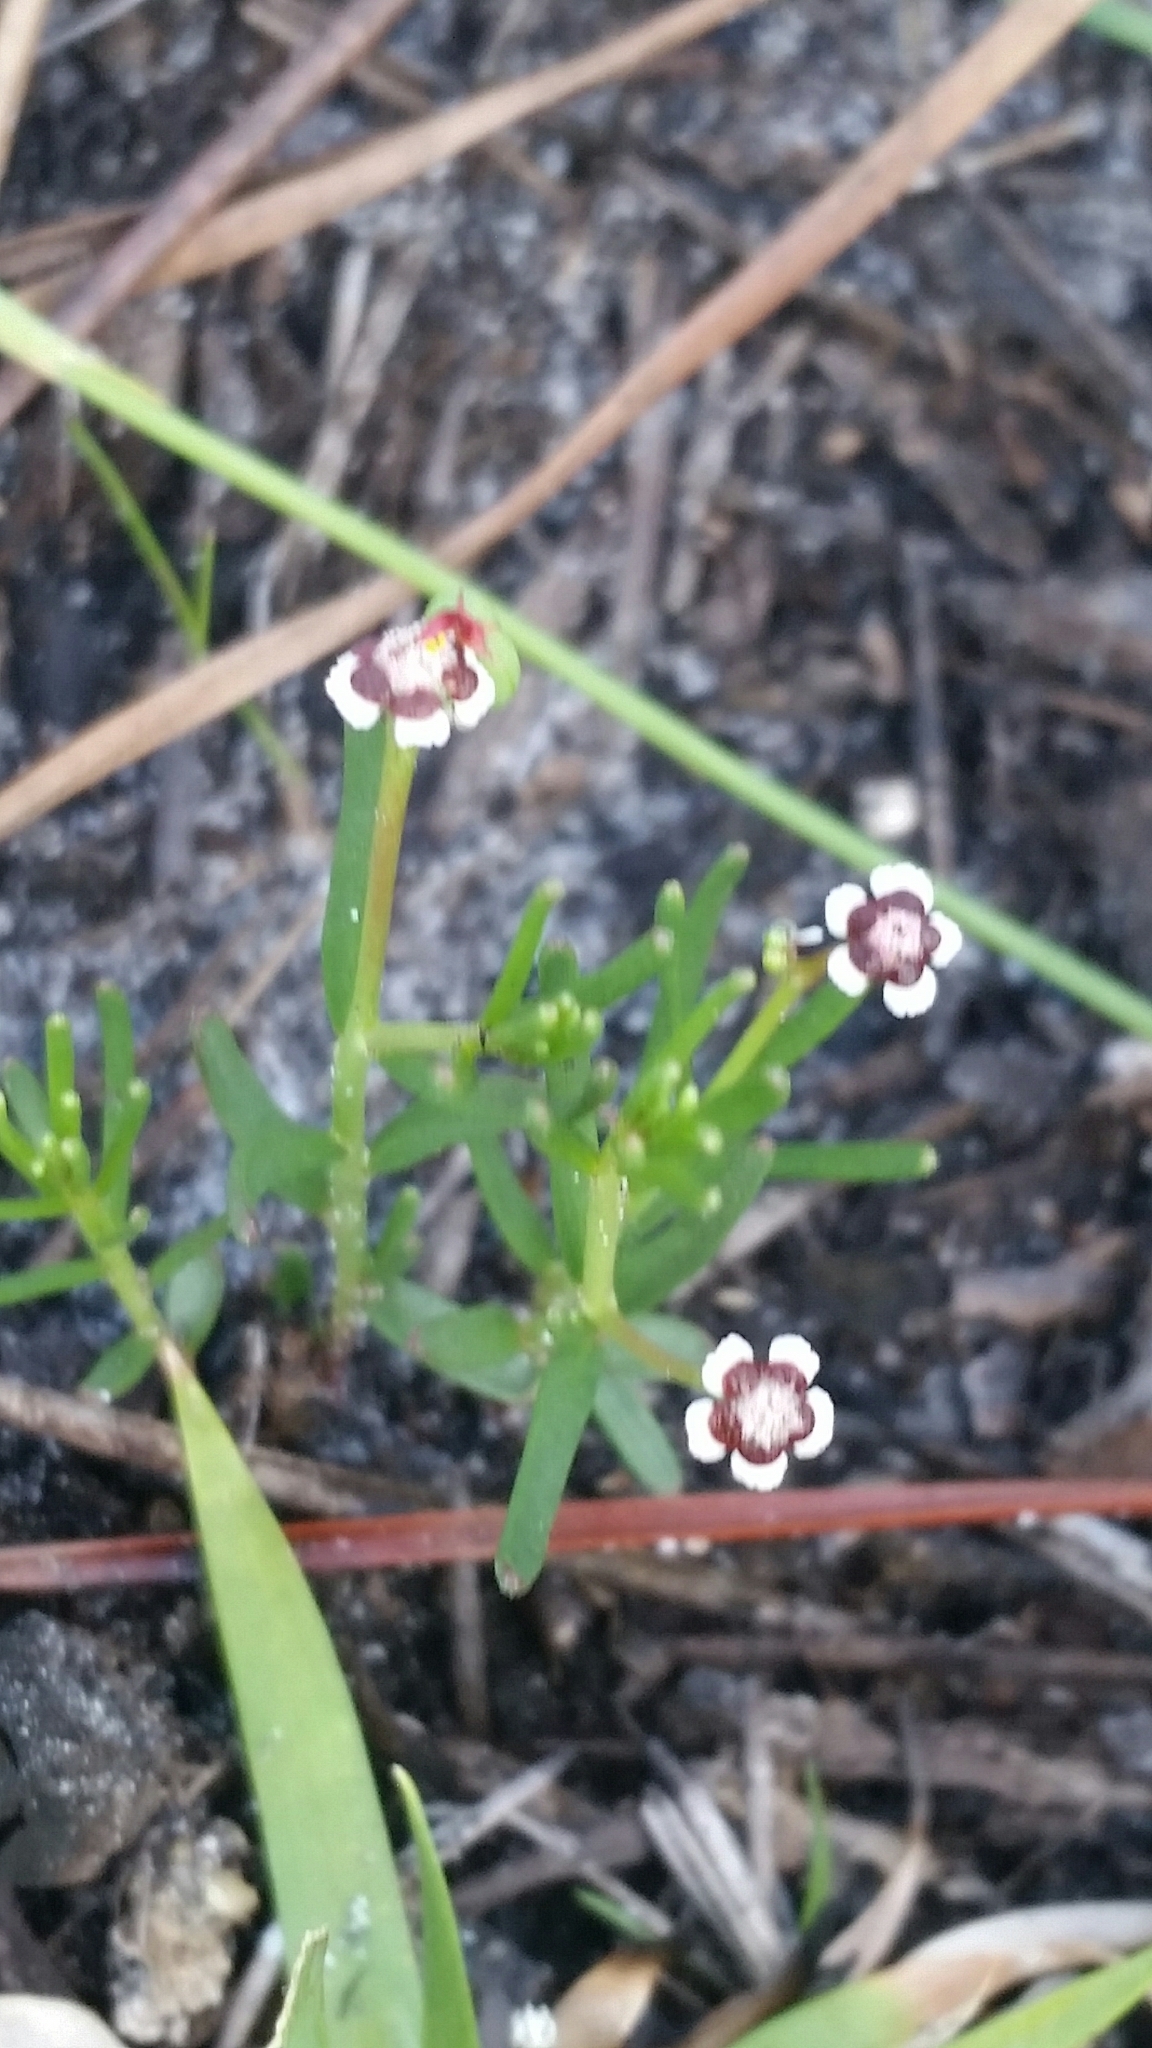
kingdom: Plantae
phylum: Tracheophyta
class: Magnoliopsida
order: Malpighiales
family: Euphorbiaceae
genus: Euphorbia
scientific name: Euphorbia polyphylla
